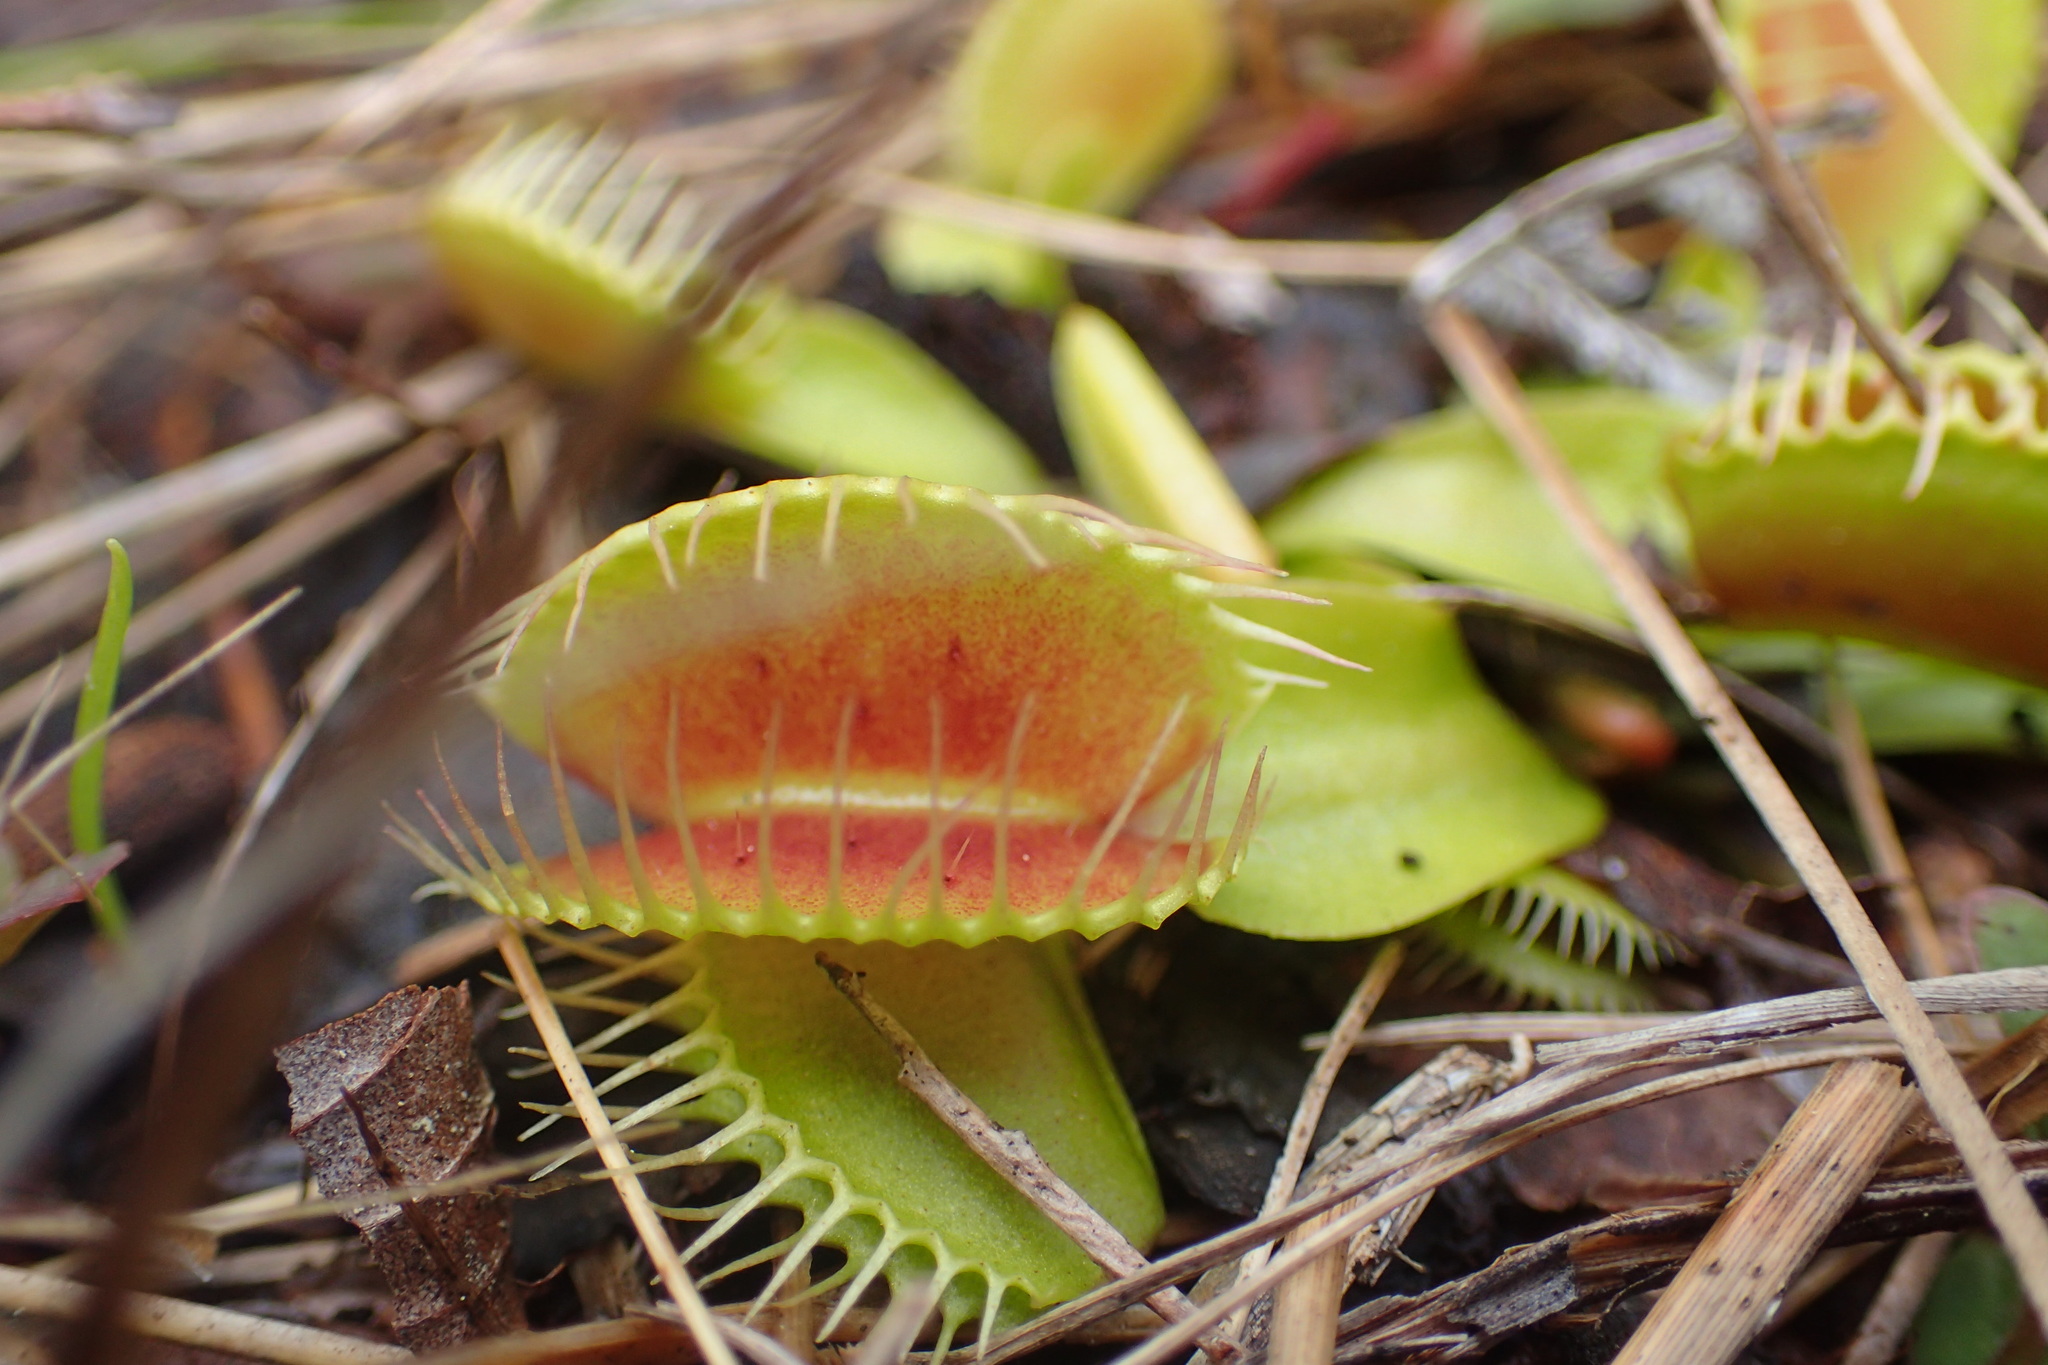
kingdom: Plantae
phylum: Tracheophyta
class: Magnoliopsida
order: Caryophyllales
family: Droseraceae
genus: Dionaea
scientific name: Dionaea muscipula
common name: Venus flytrap
